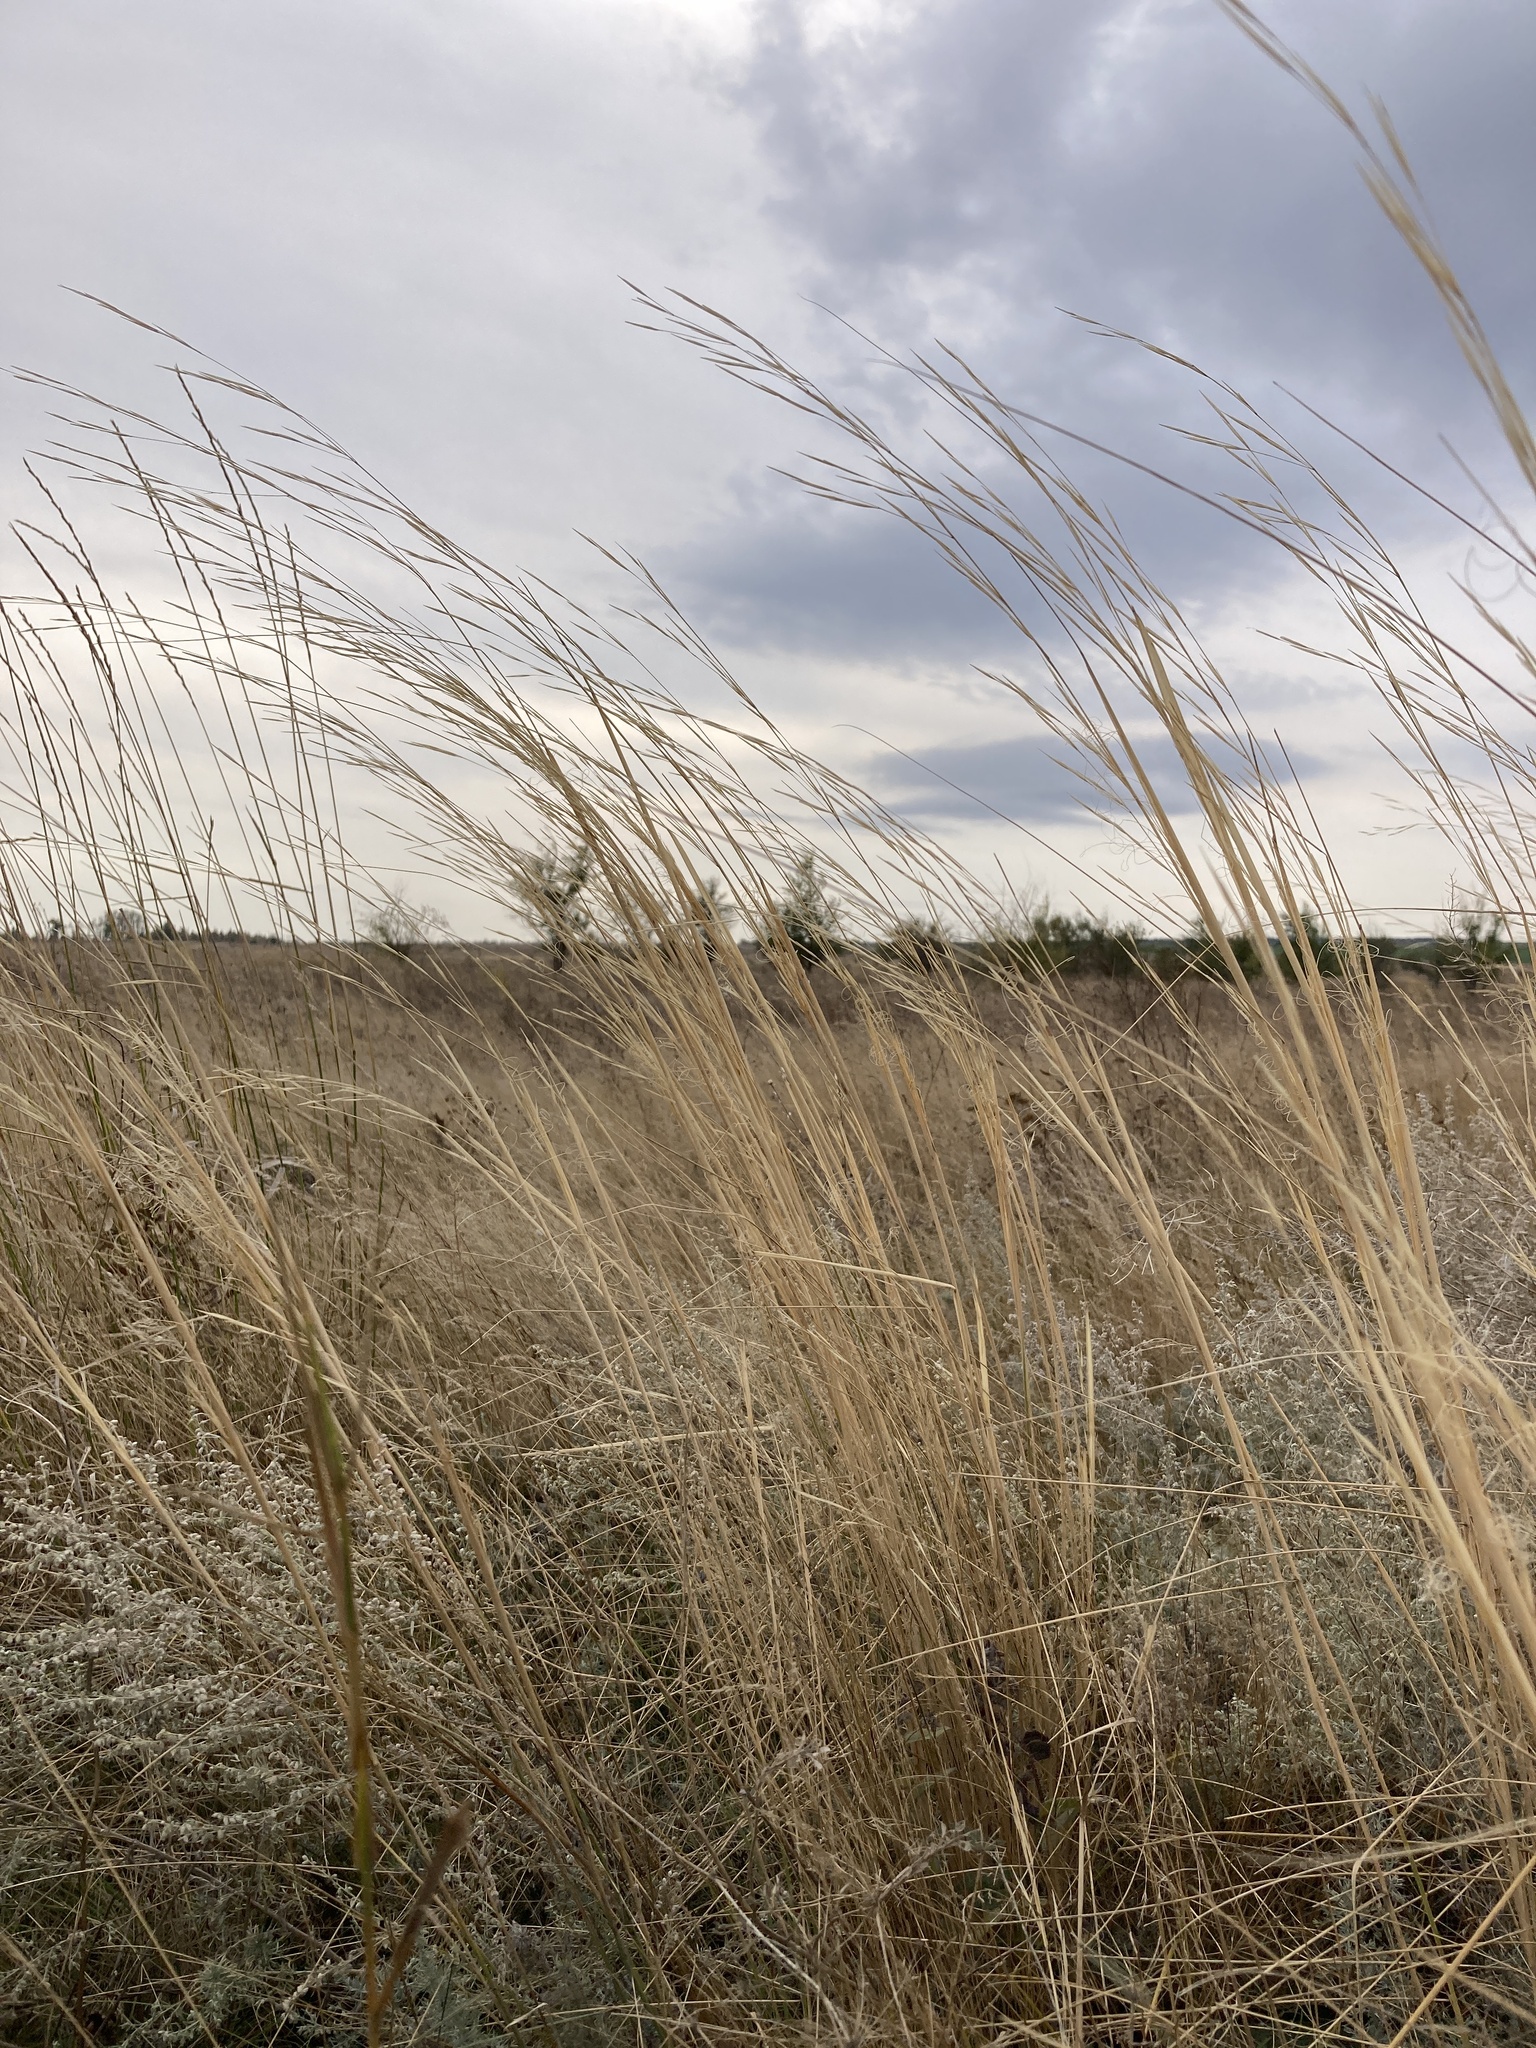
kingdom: Plantae
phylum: Tracheophyta
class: Liliopsida
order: Poales
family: Poaceae
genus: Stipa
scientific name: Stipa capillata
